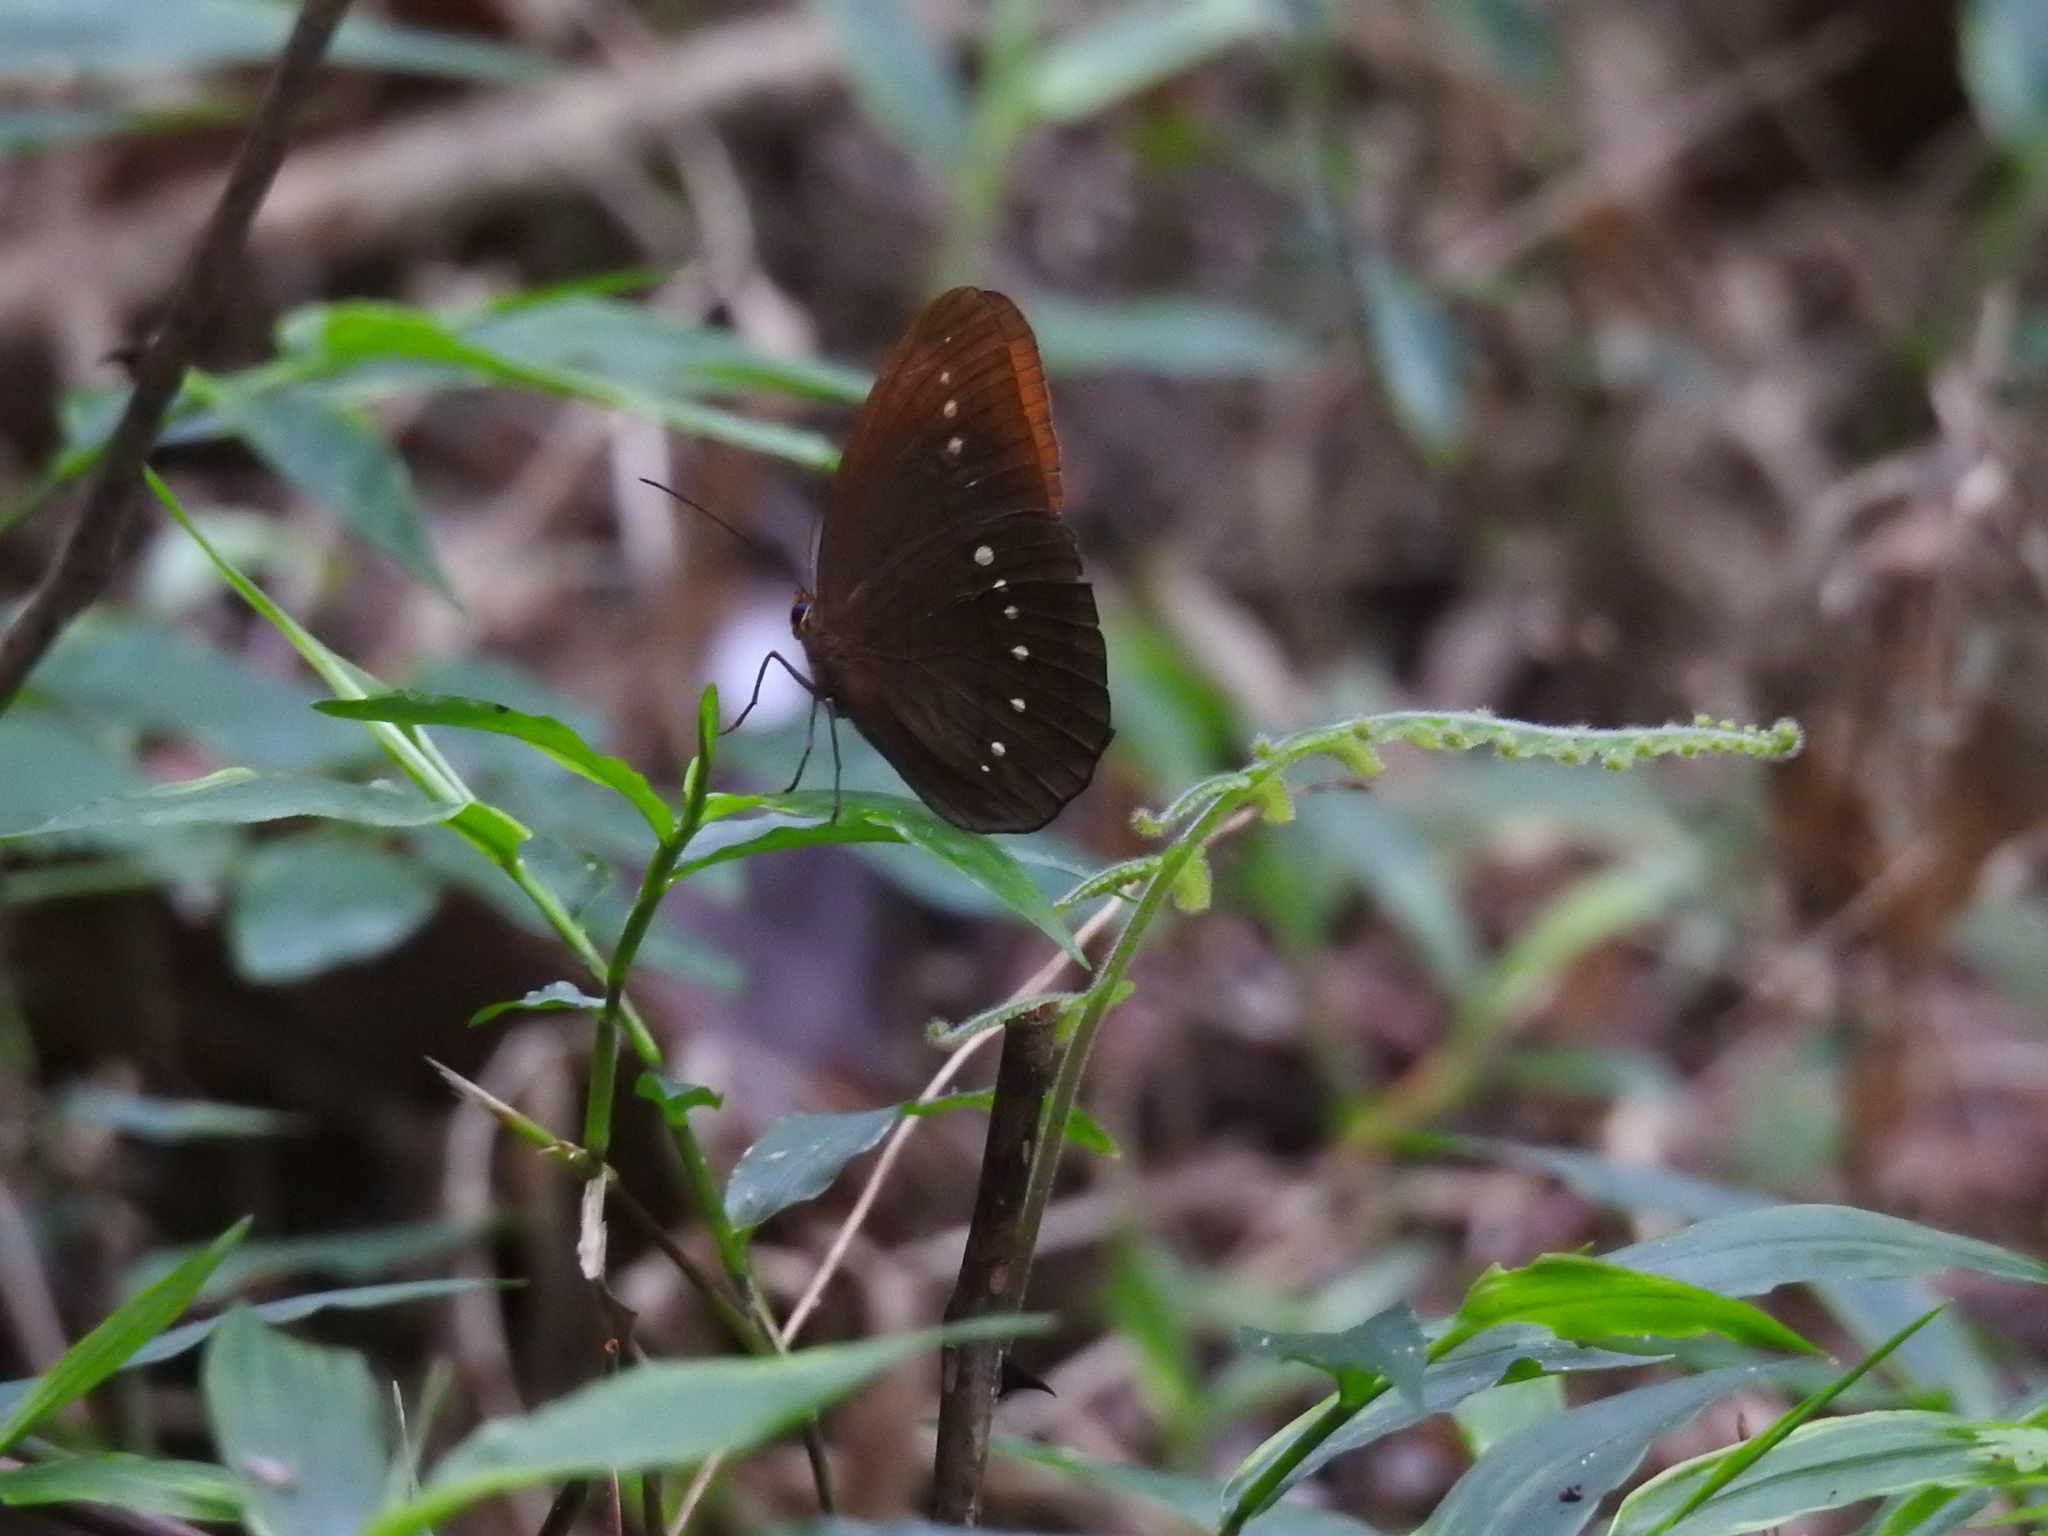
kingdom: Animalia
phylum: Arthropoda
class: Insecta
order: Lepidoptera
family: Nymphalidae
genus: Faunis
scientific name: Faunis eumeus
